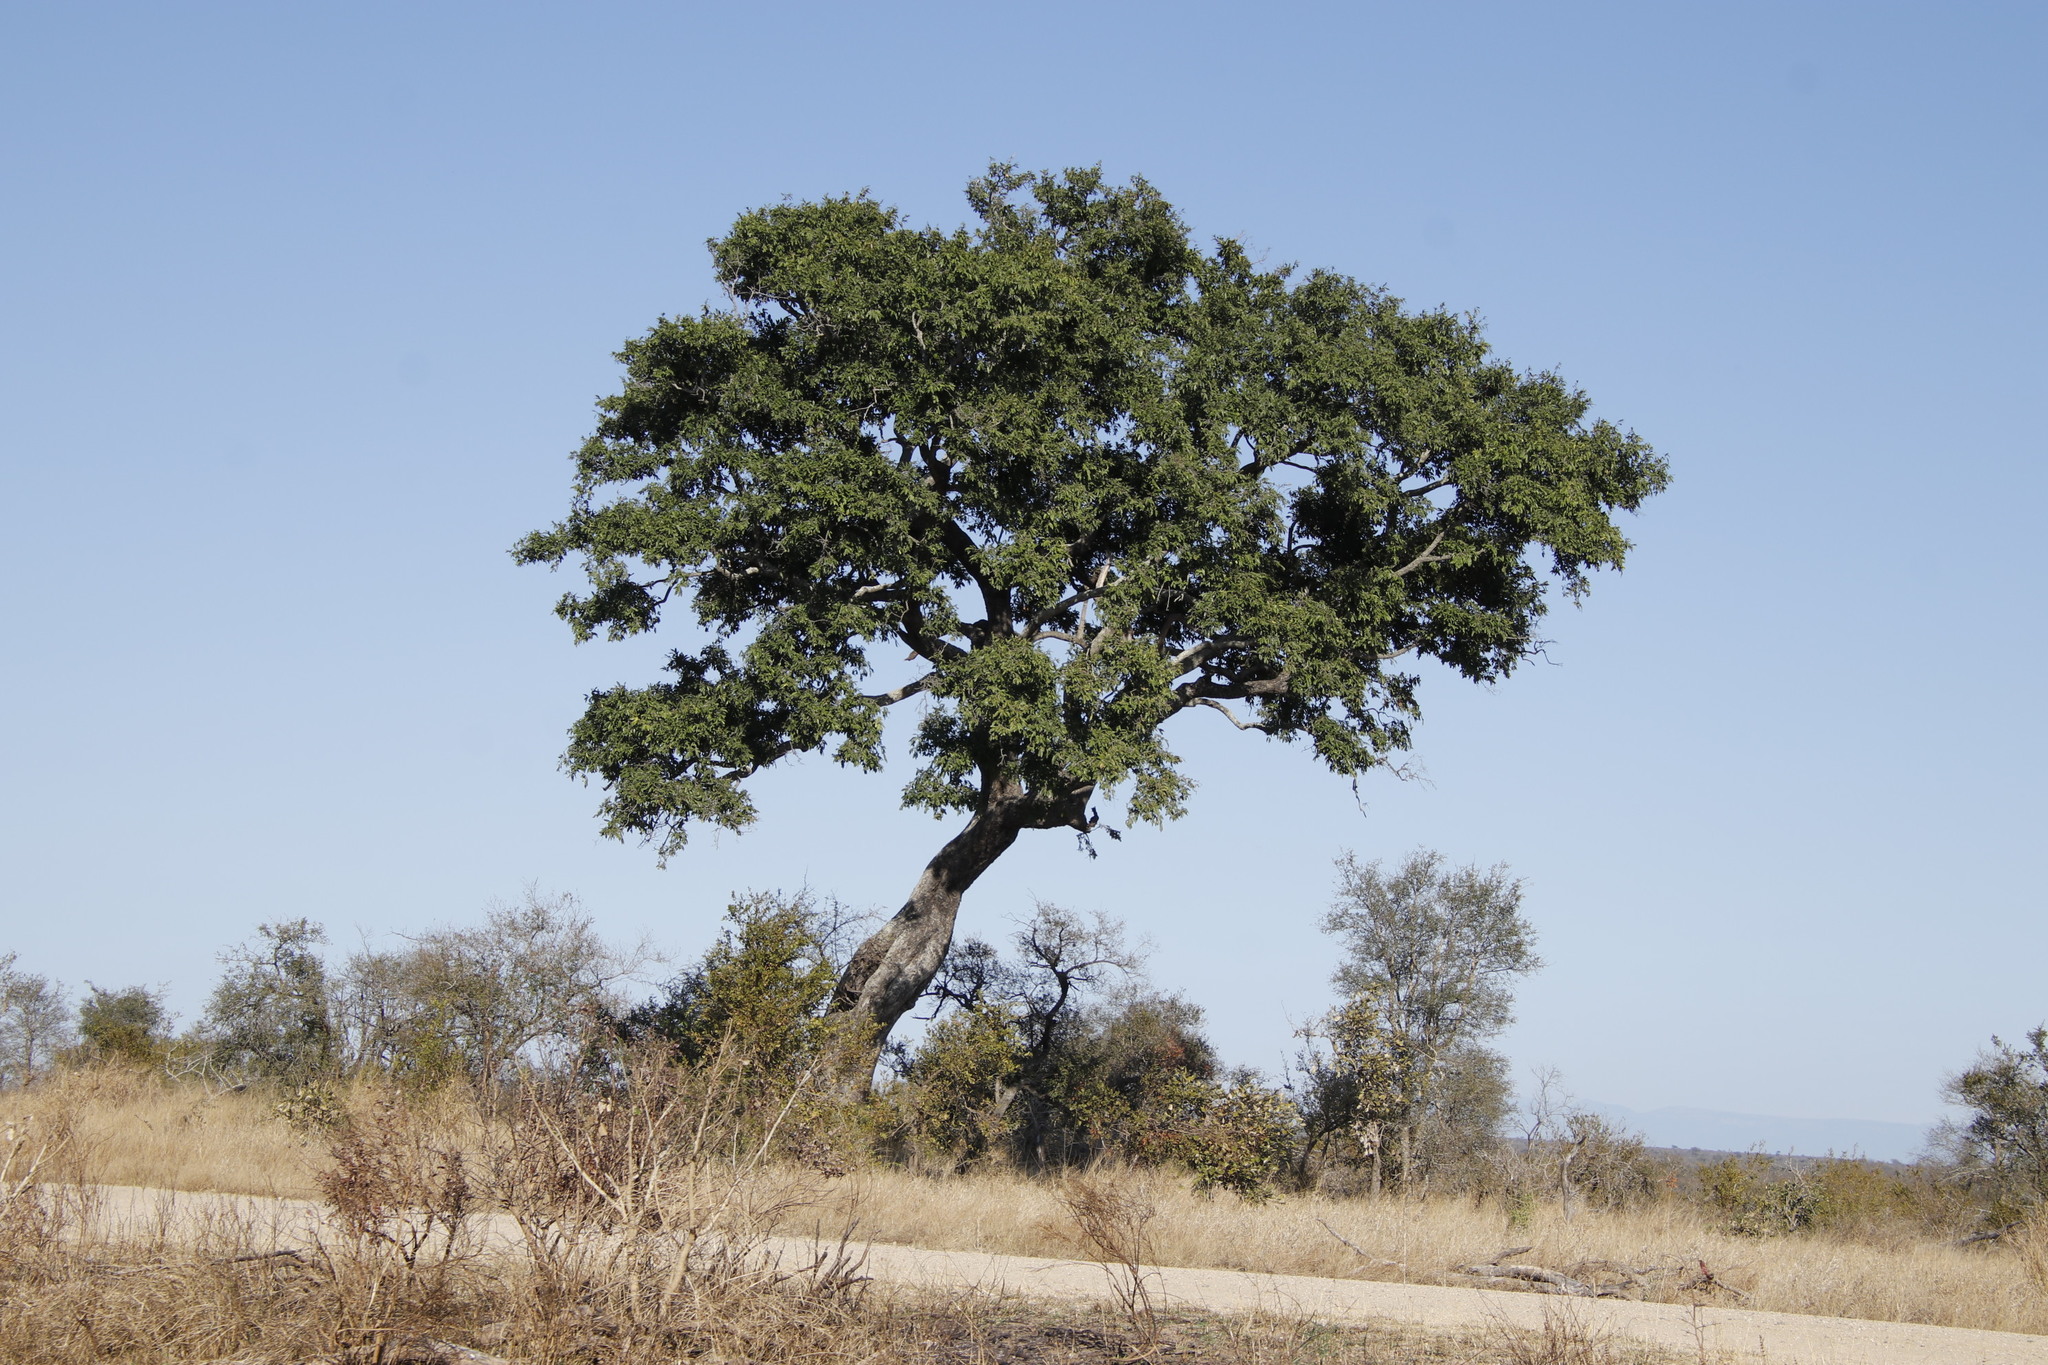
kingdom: Plantae
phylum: Tracheophyta
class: Magnoliopsida
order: Ericales
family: Ebenaceae
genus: Diospyros
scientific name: Diospyros mespiliformis
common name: Ebony diospyros
